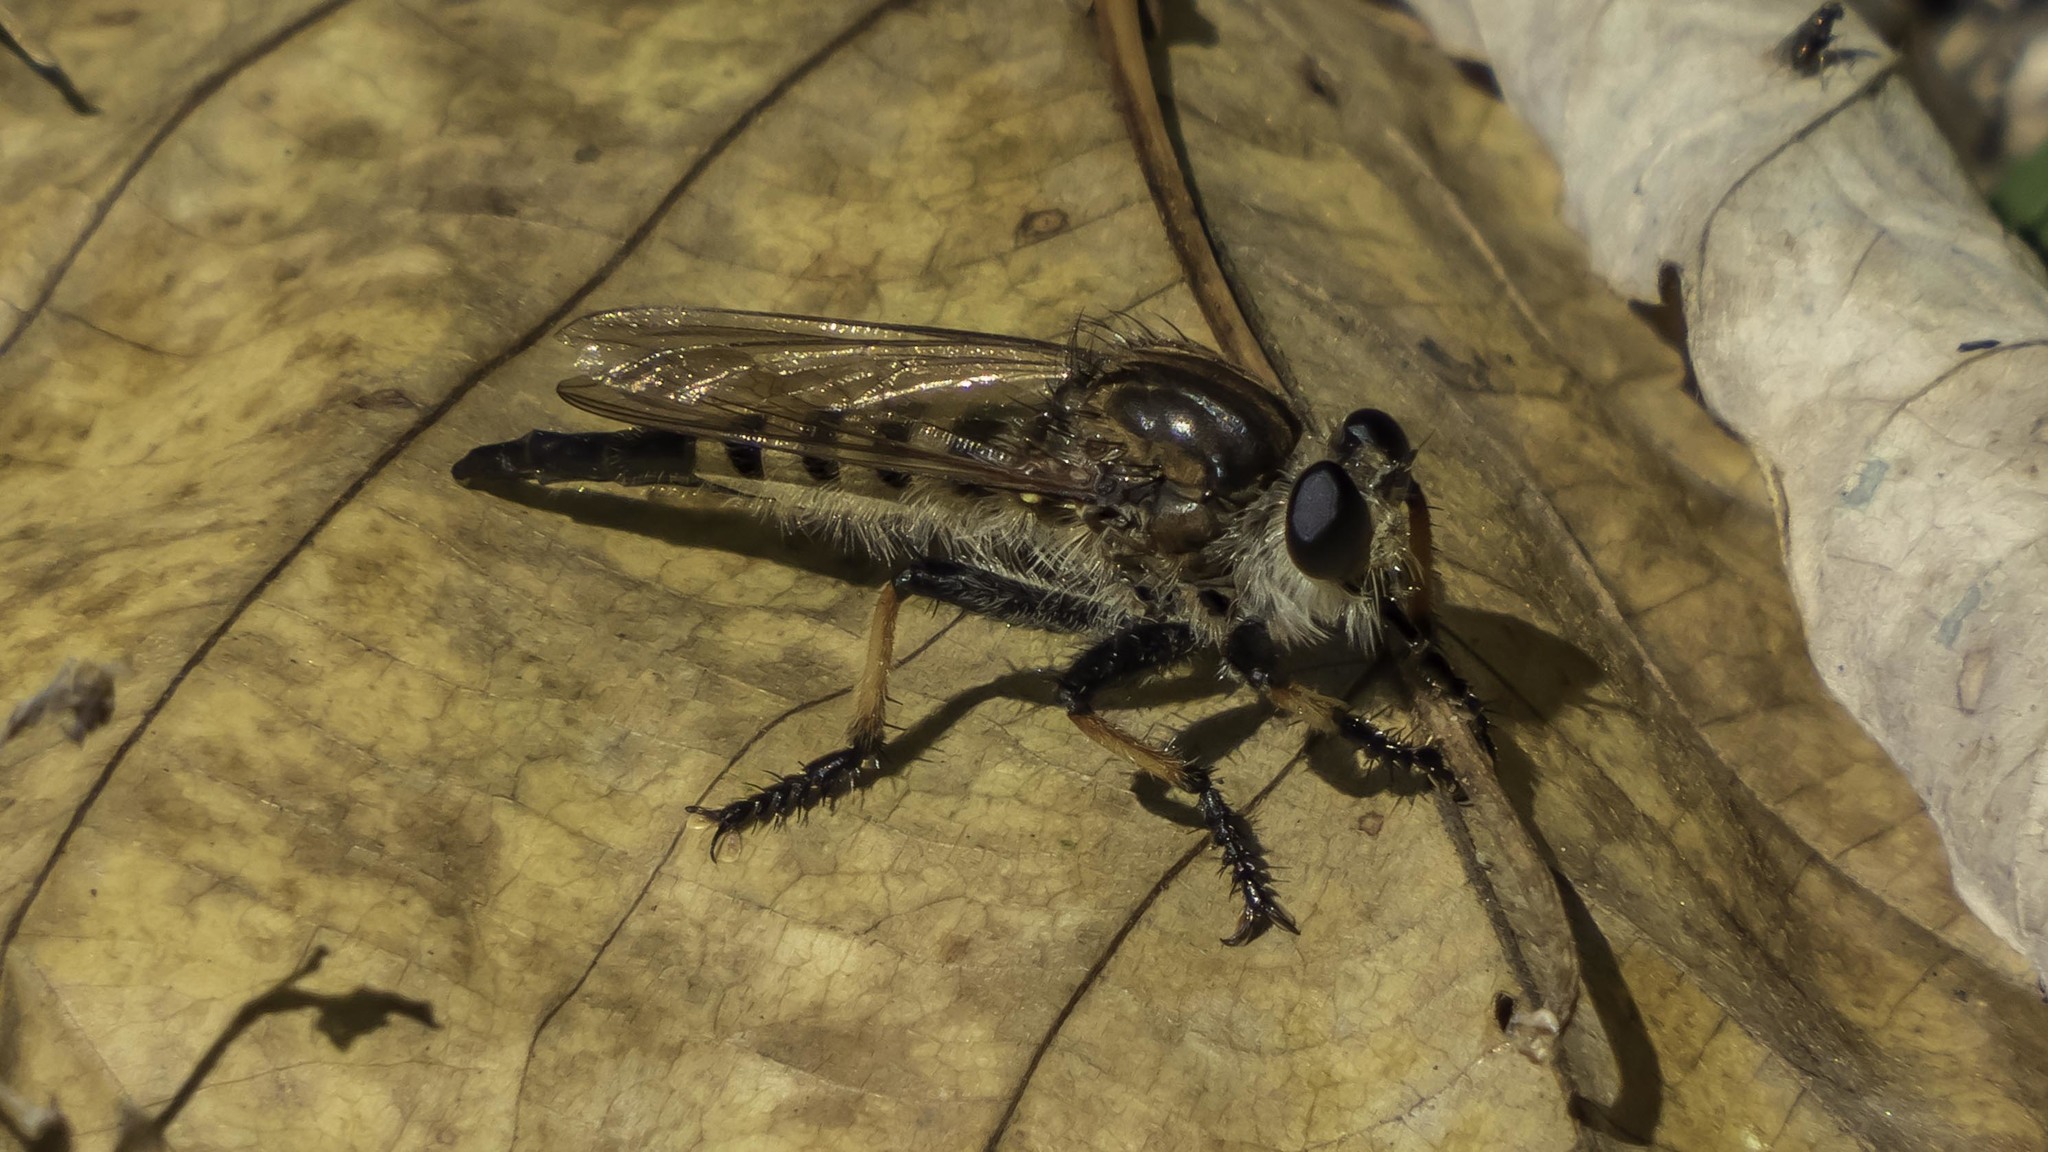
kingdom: Animalia
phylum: Arthropoda
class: Insecta
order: Diptera
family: Asilidae
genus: Promachus
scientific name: Promachus rufipes
